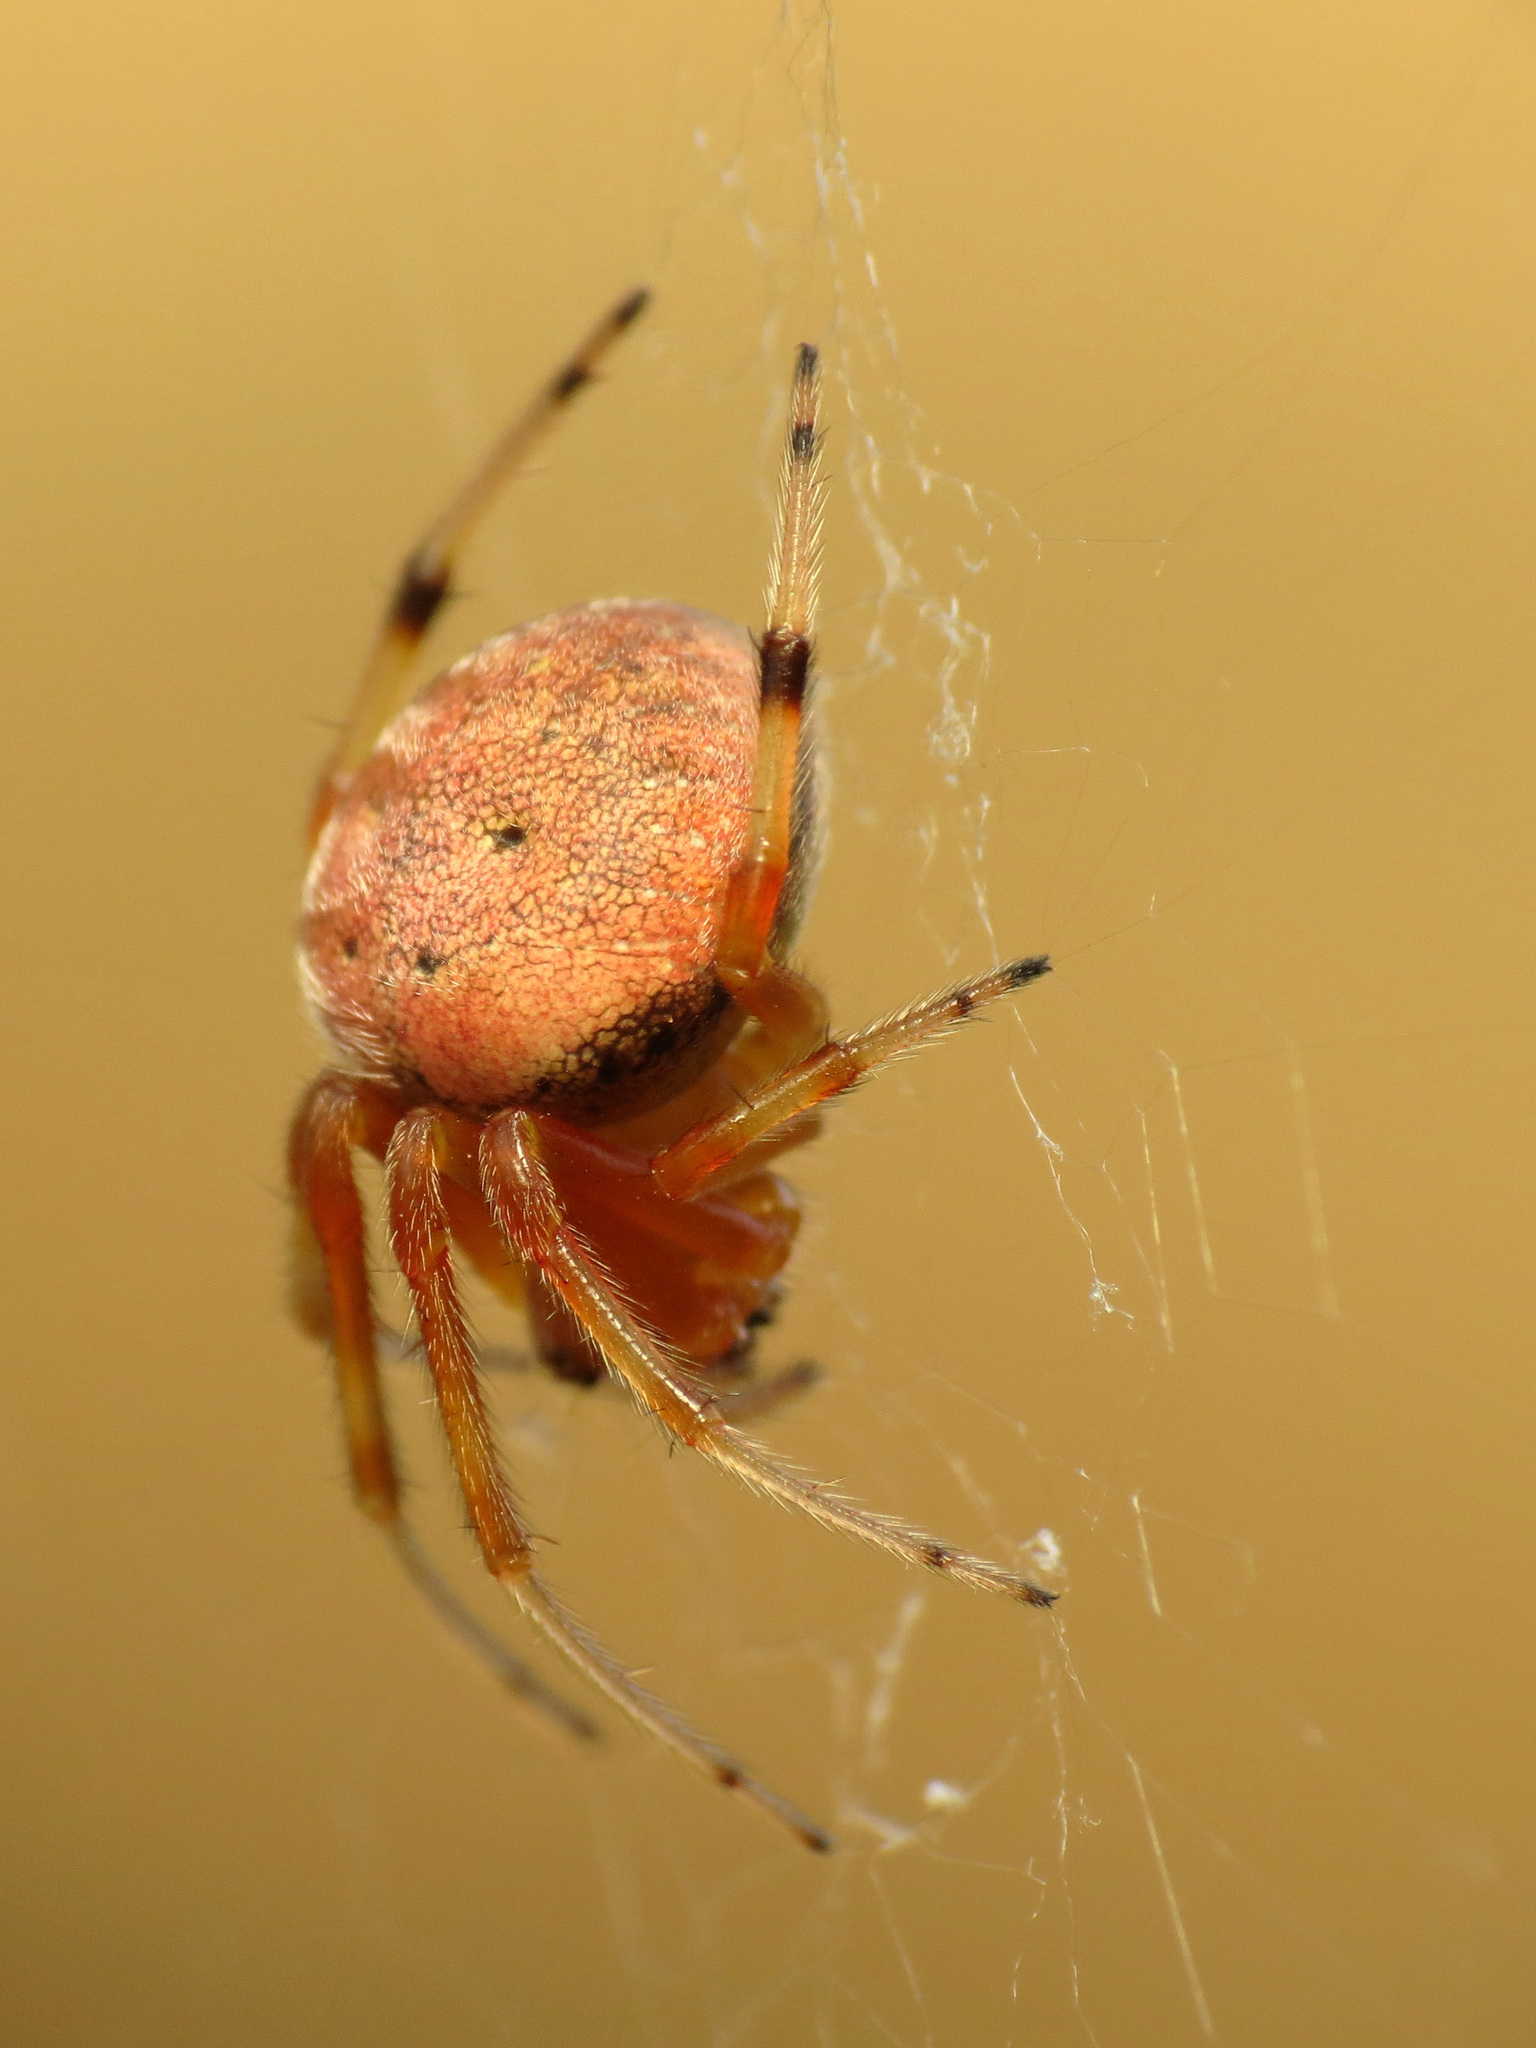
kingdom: Animalia
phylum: Arthropoda
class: Arachnida
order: Araneae
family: Araneidae
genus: Araneus
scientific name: Araneus thaddeus
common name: Lattice orbweaver
